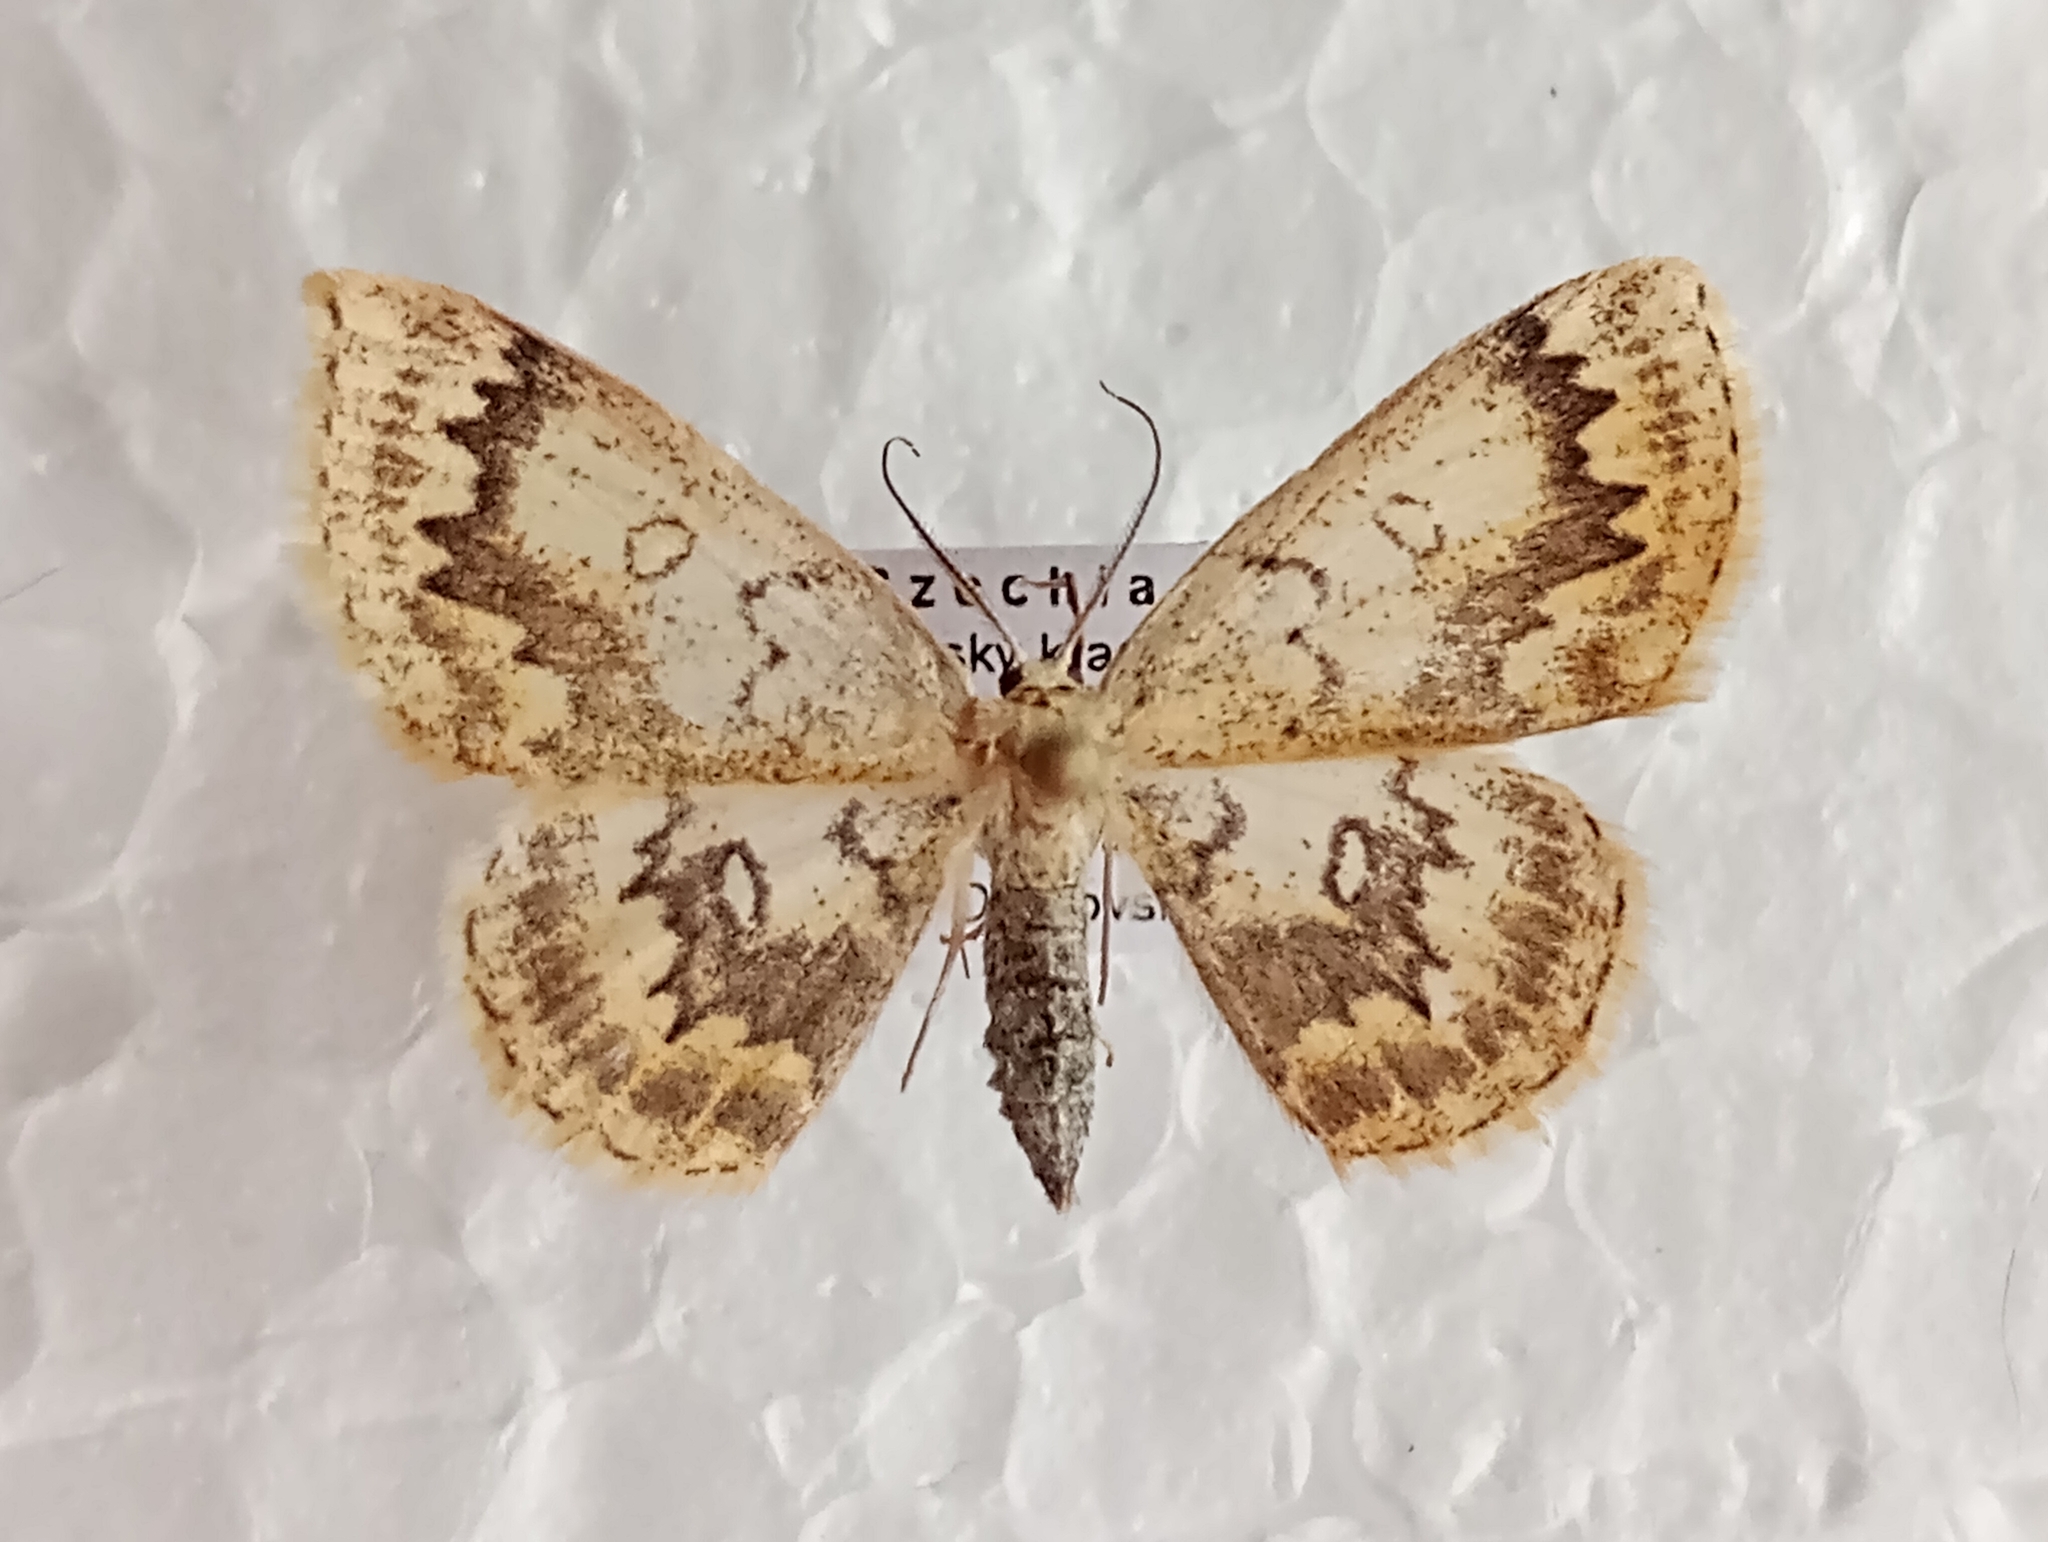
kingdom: Animalia
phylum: Arthropoda
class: Insecta
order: Lepidoptera
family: Geometridae
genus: Cyclophora
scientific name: Cyclophora annularia
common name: Mocha
